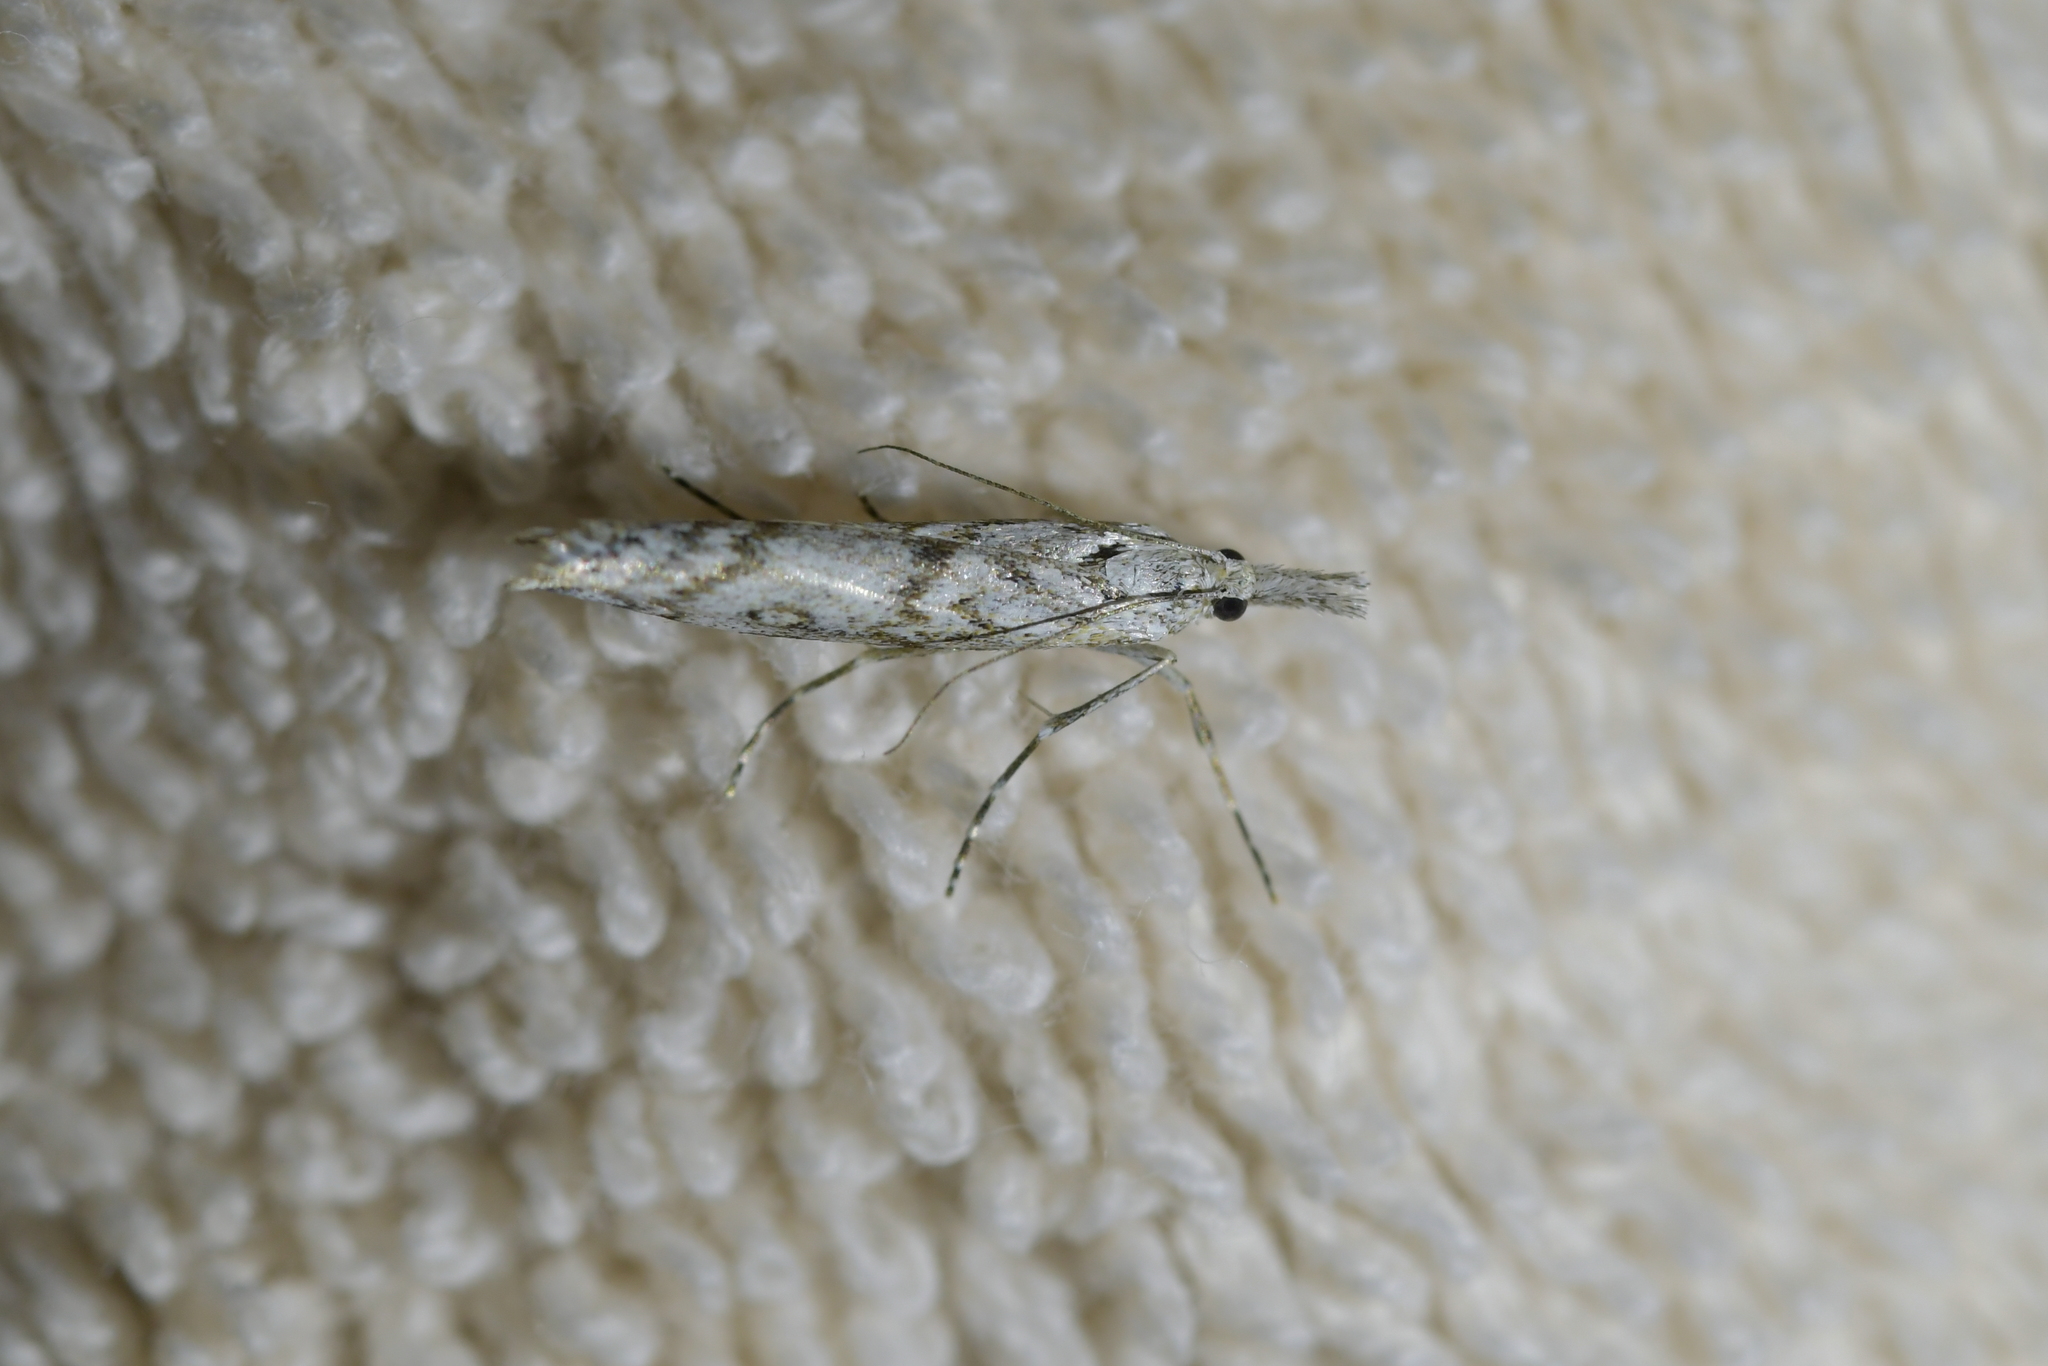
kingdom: Animalia
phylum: Arthropoda
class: Insecta
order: Lepidoptera
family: Crambidae
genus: Orocrambus
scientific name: Orocrambus cyclopicus
